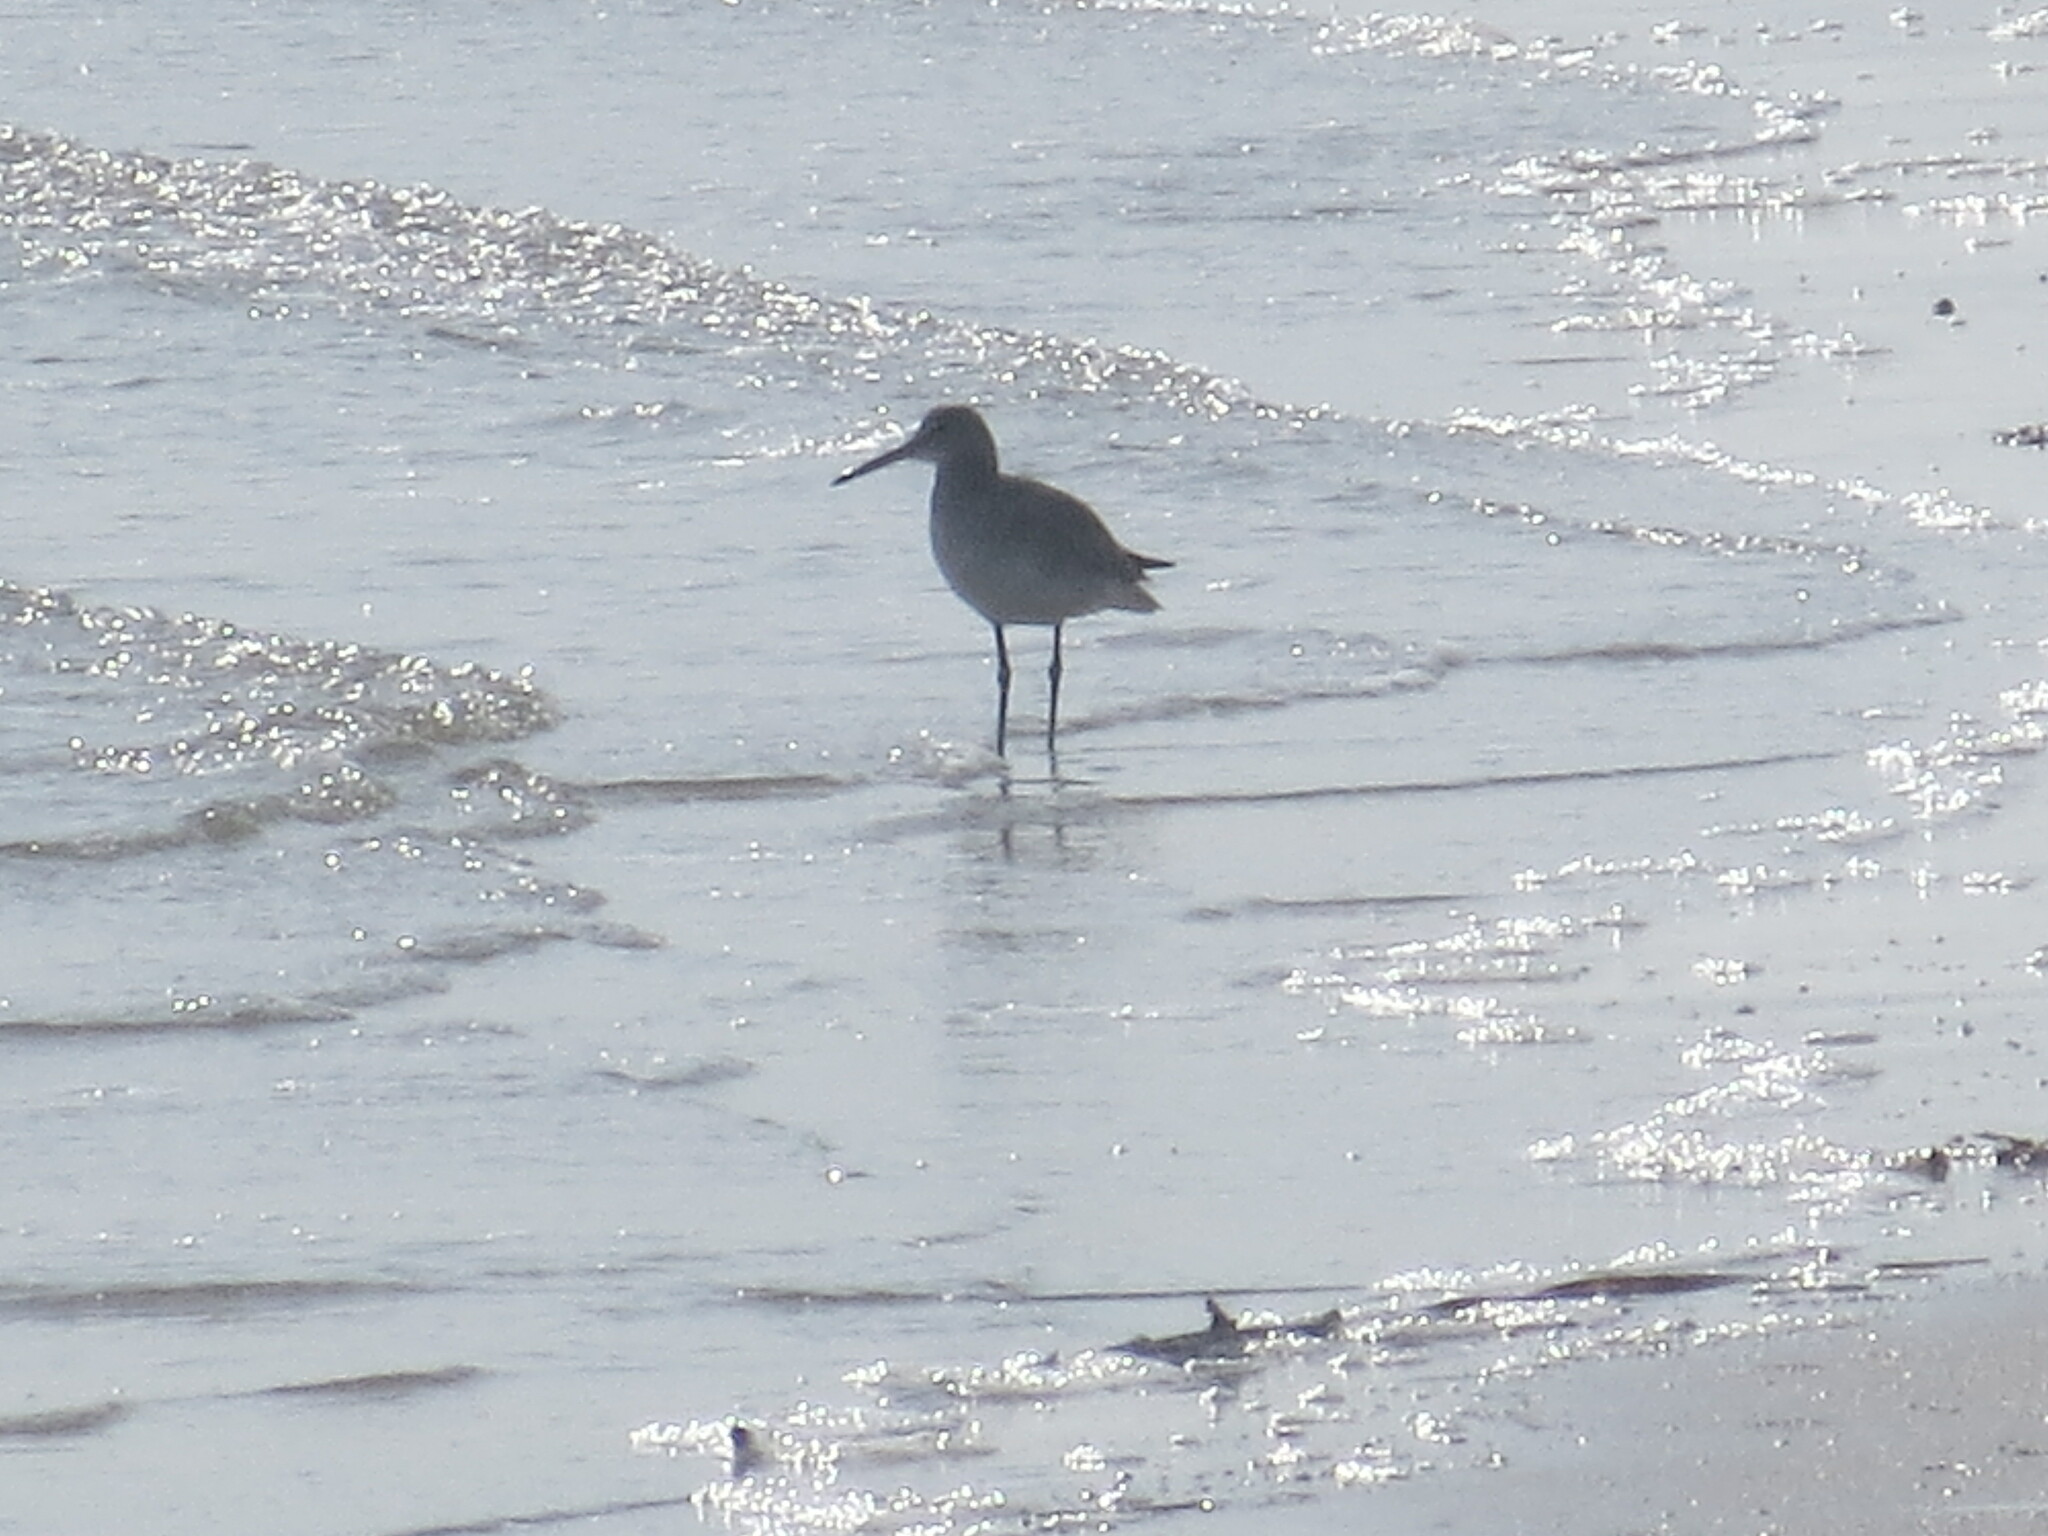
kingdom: Animalia
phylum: Chordata
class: Aves
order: Charadriiformes
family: Scolopacidae
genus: Tringa
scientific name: Tringa semipalmata
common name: Willet
